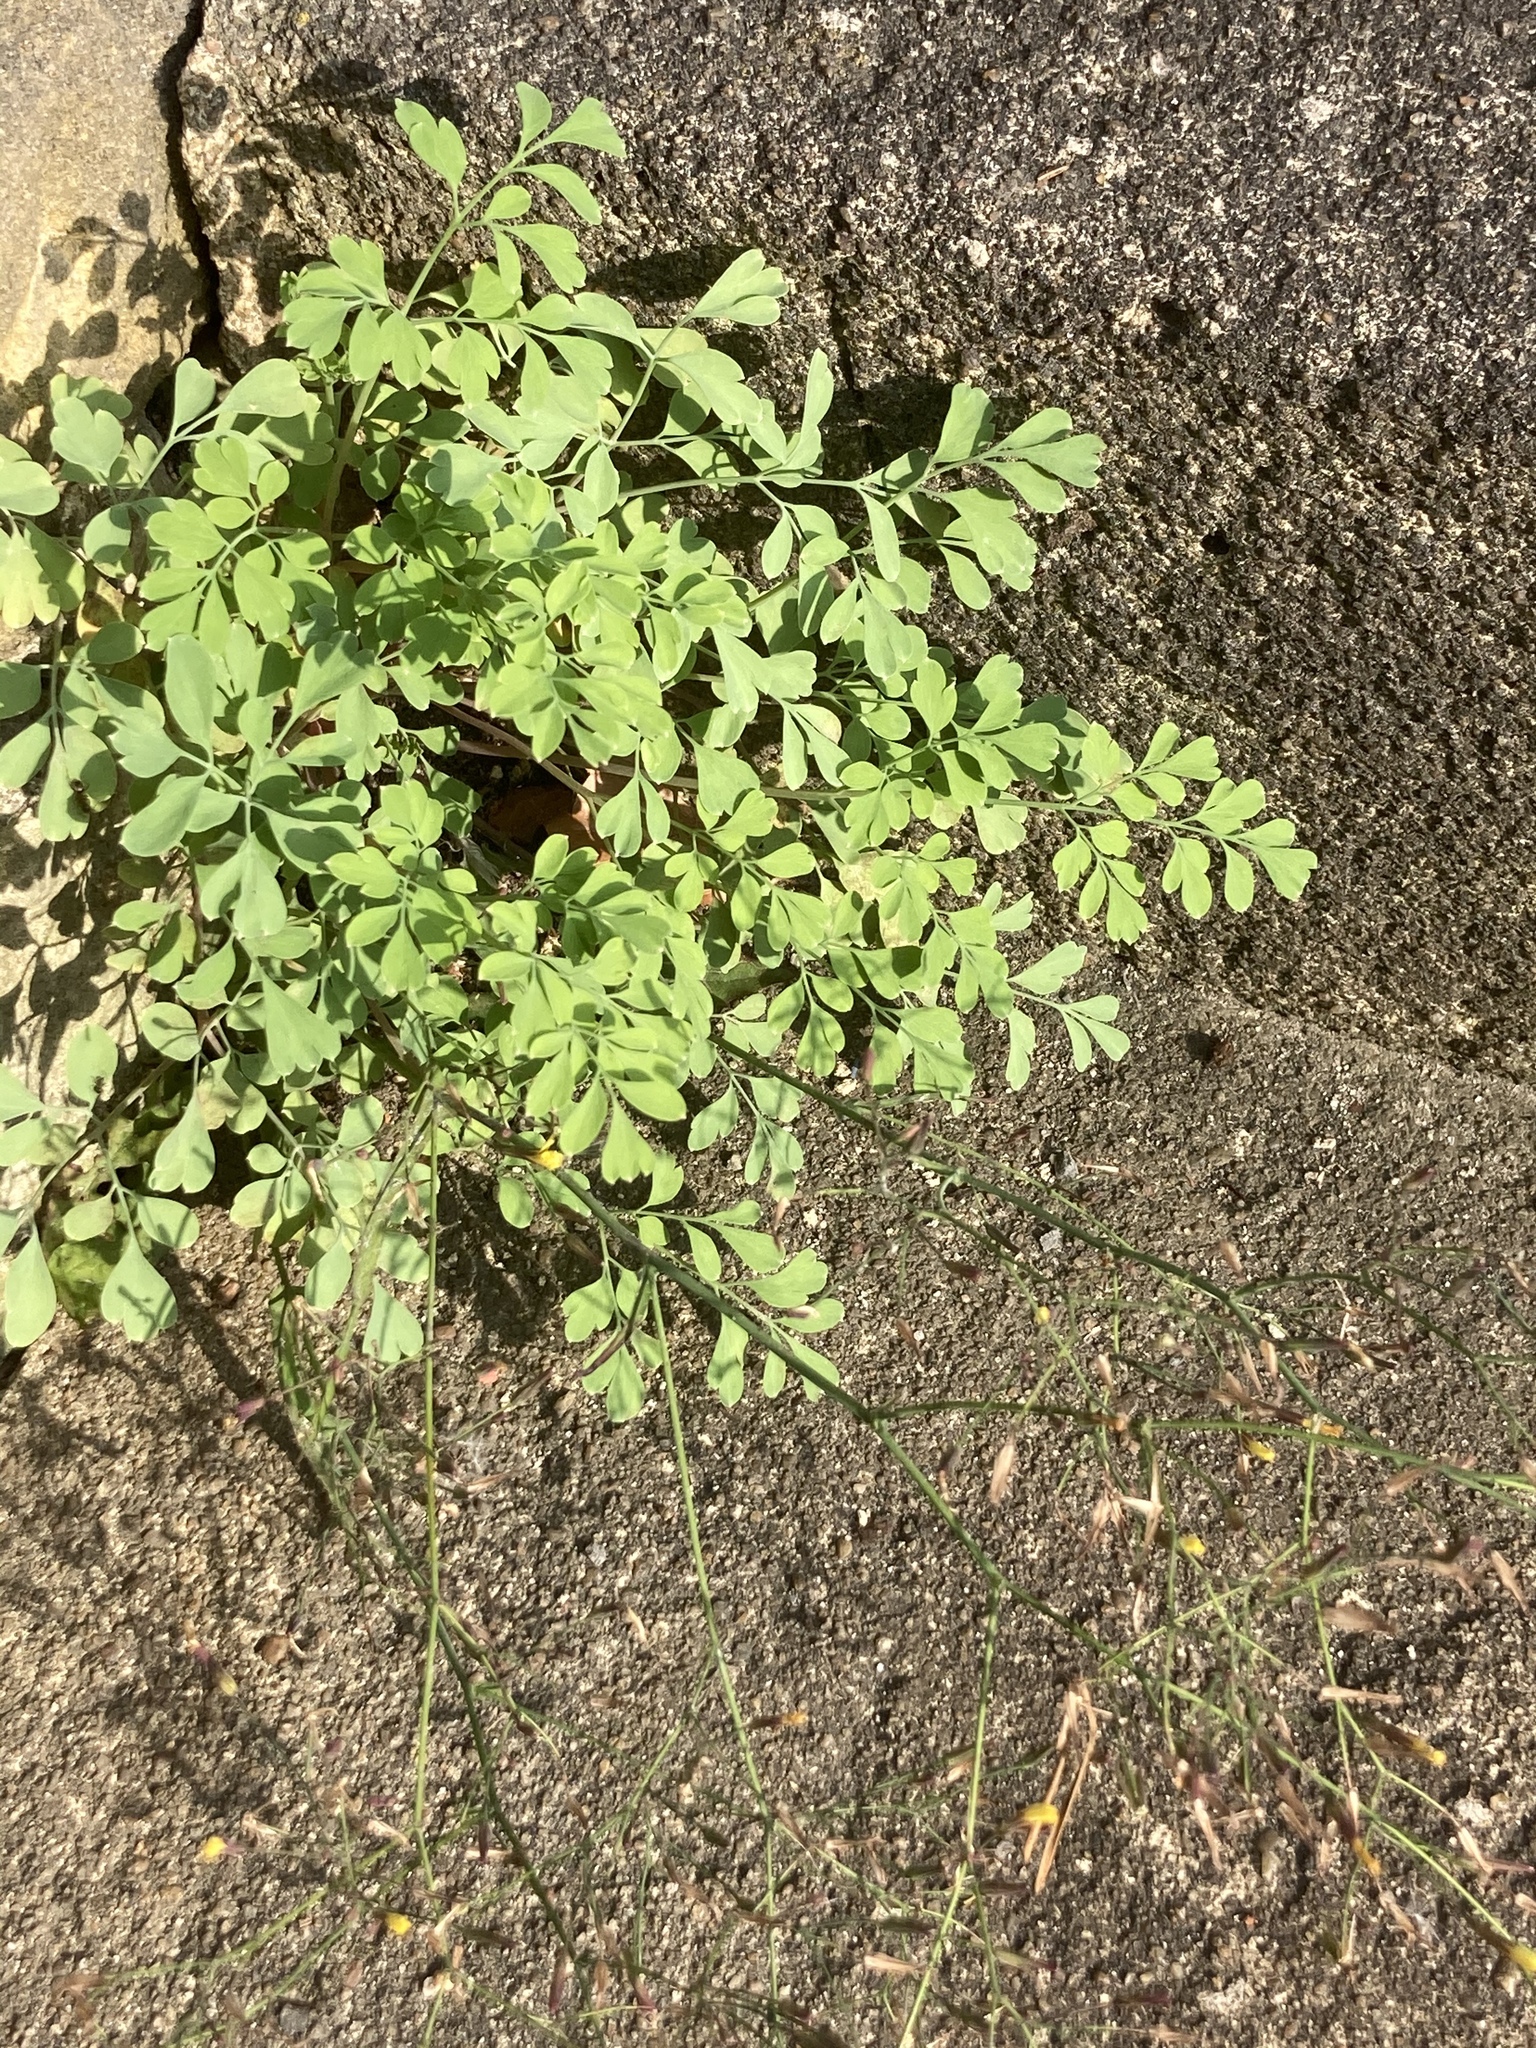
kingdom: Plantae
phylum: Tracheophyta
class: Magnoliopsida
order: Ranunculales
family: Papaveraceae
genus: Pseudofumaria
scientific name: Pseudofumaria lutea
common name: Yellow corydalis
